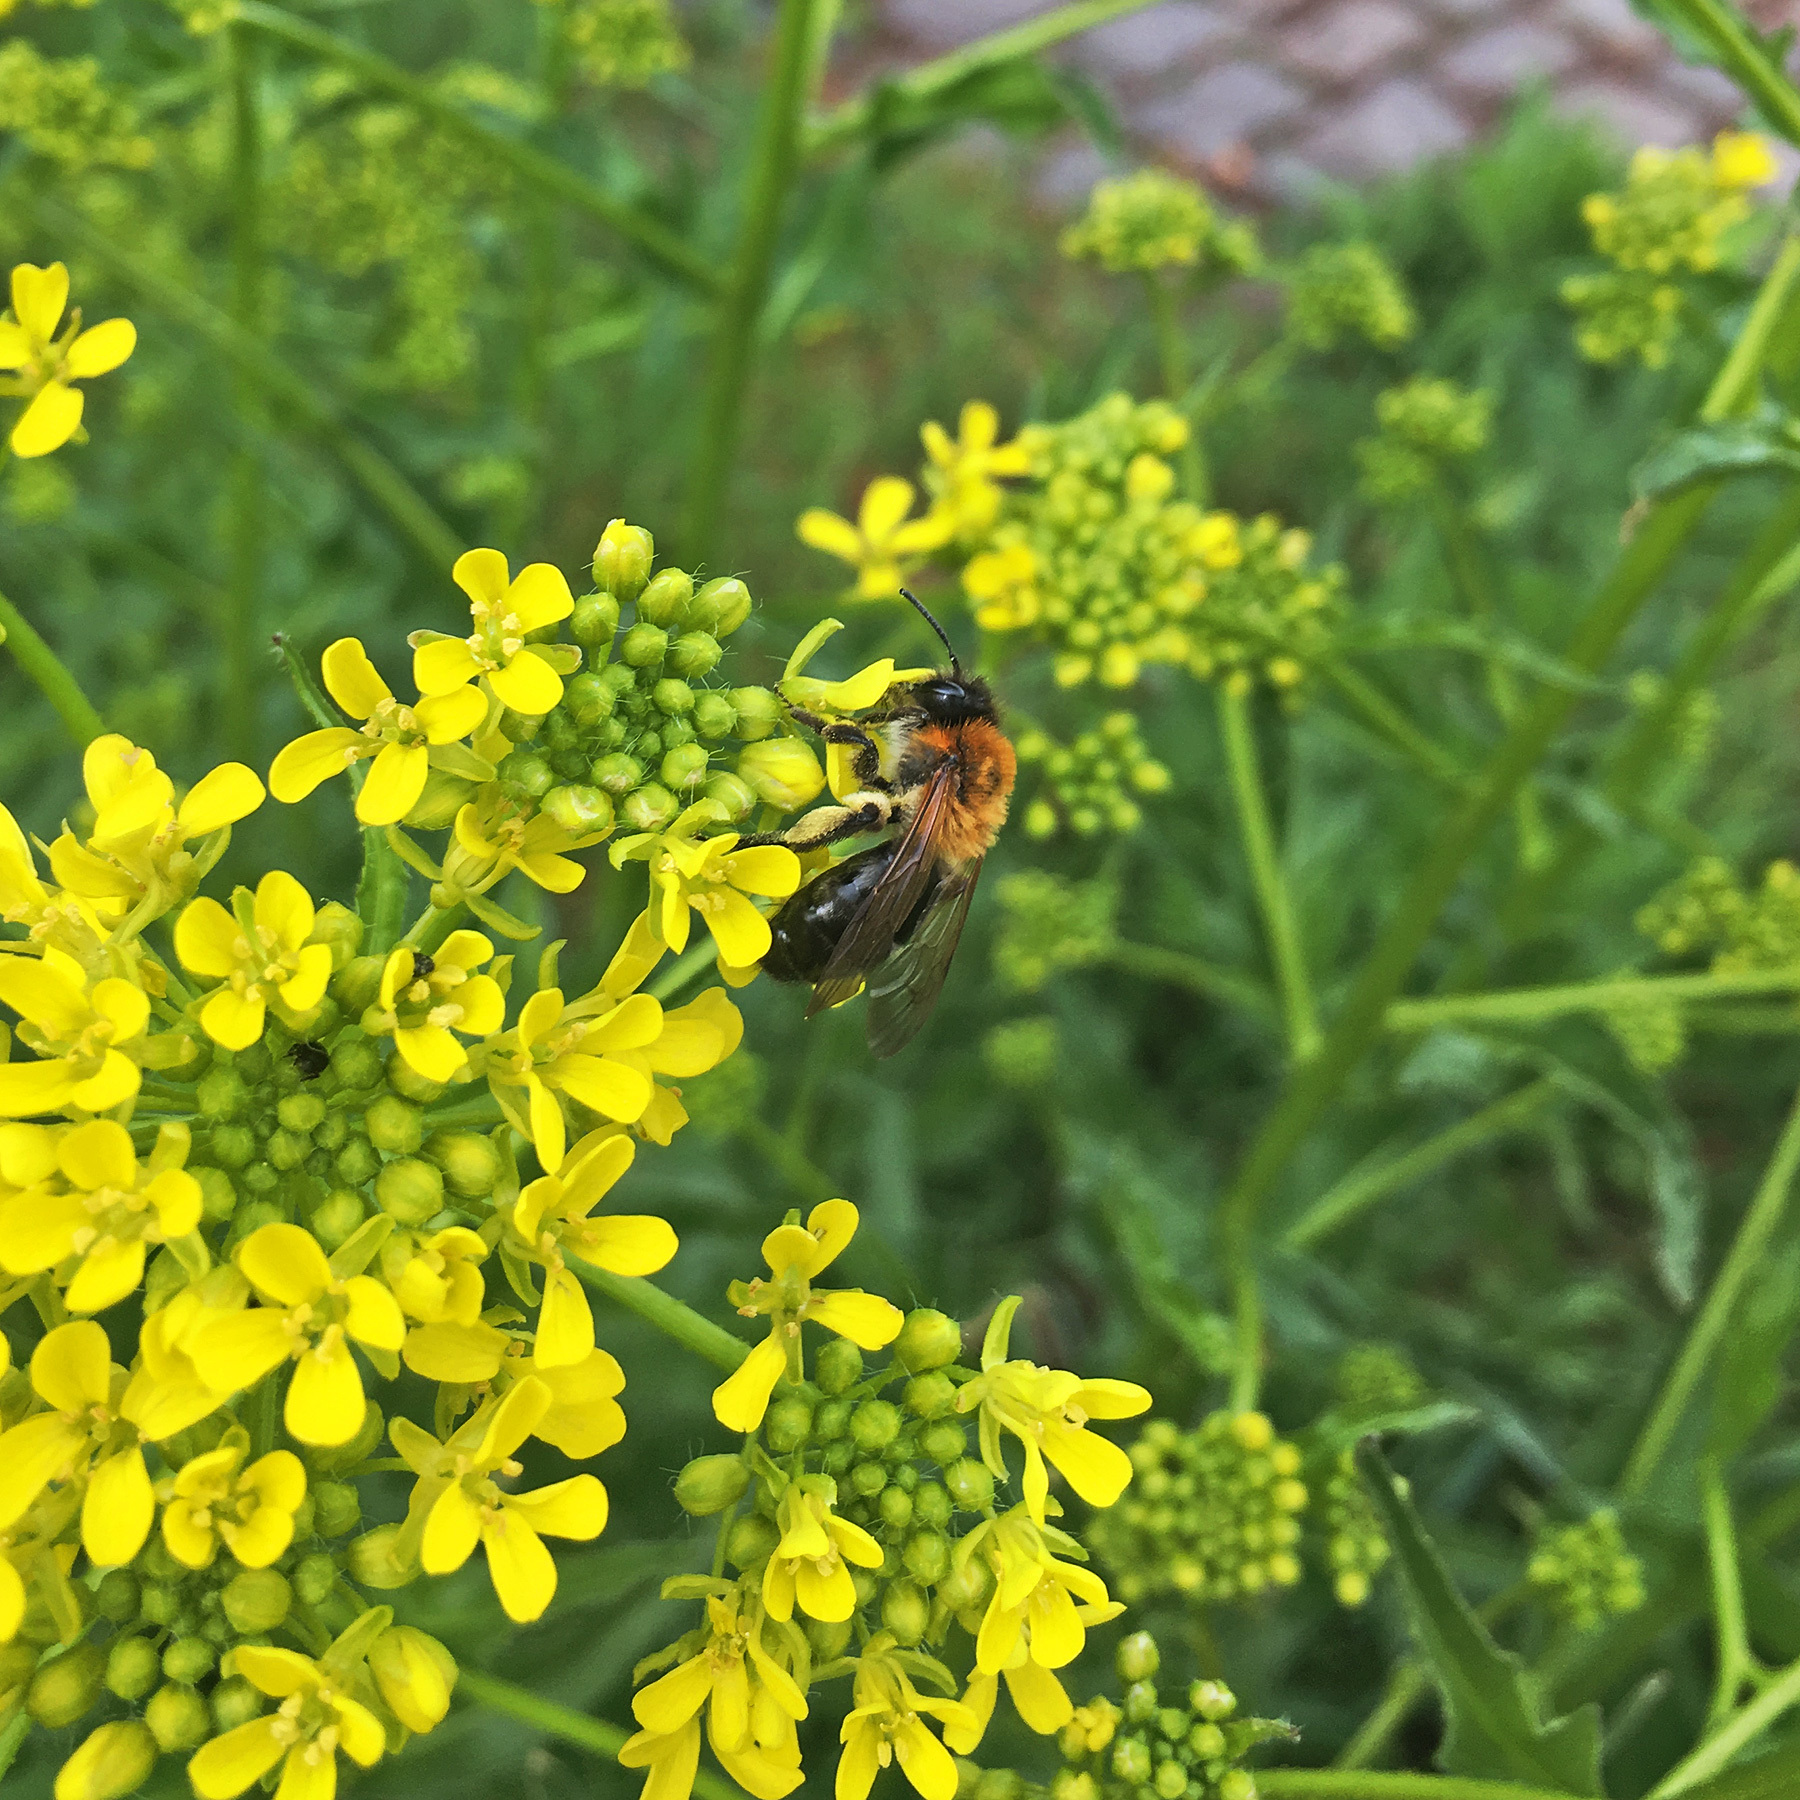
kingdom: Animalia
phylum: Arthropoda
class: Insecta
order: Hymenoptera
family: Andrenidae
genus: Andrena
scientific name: Andrena nitida
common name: Grey-patched mining bee
